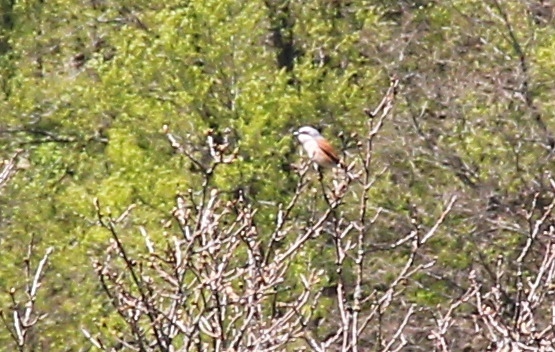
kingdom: Animalia
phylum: Chordata
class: Aves
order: Passeriformes
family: Laniidae
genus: Lanius
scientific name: Lanius collurio
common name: Red-backed shrike
